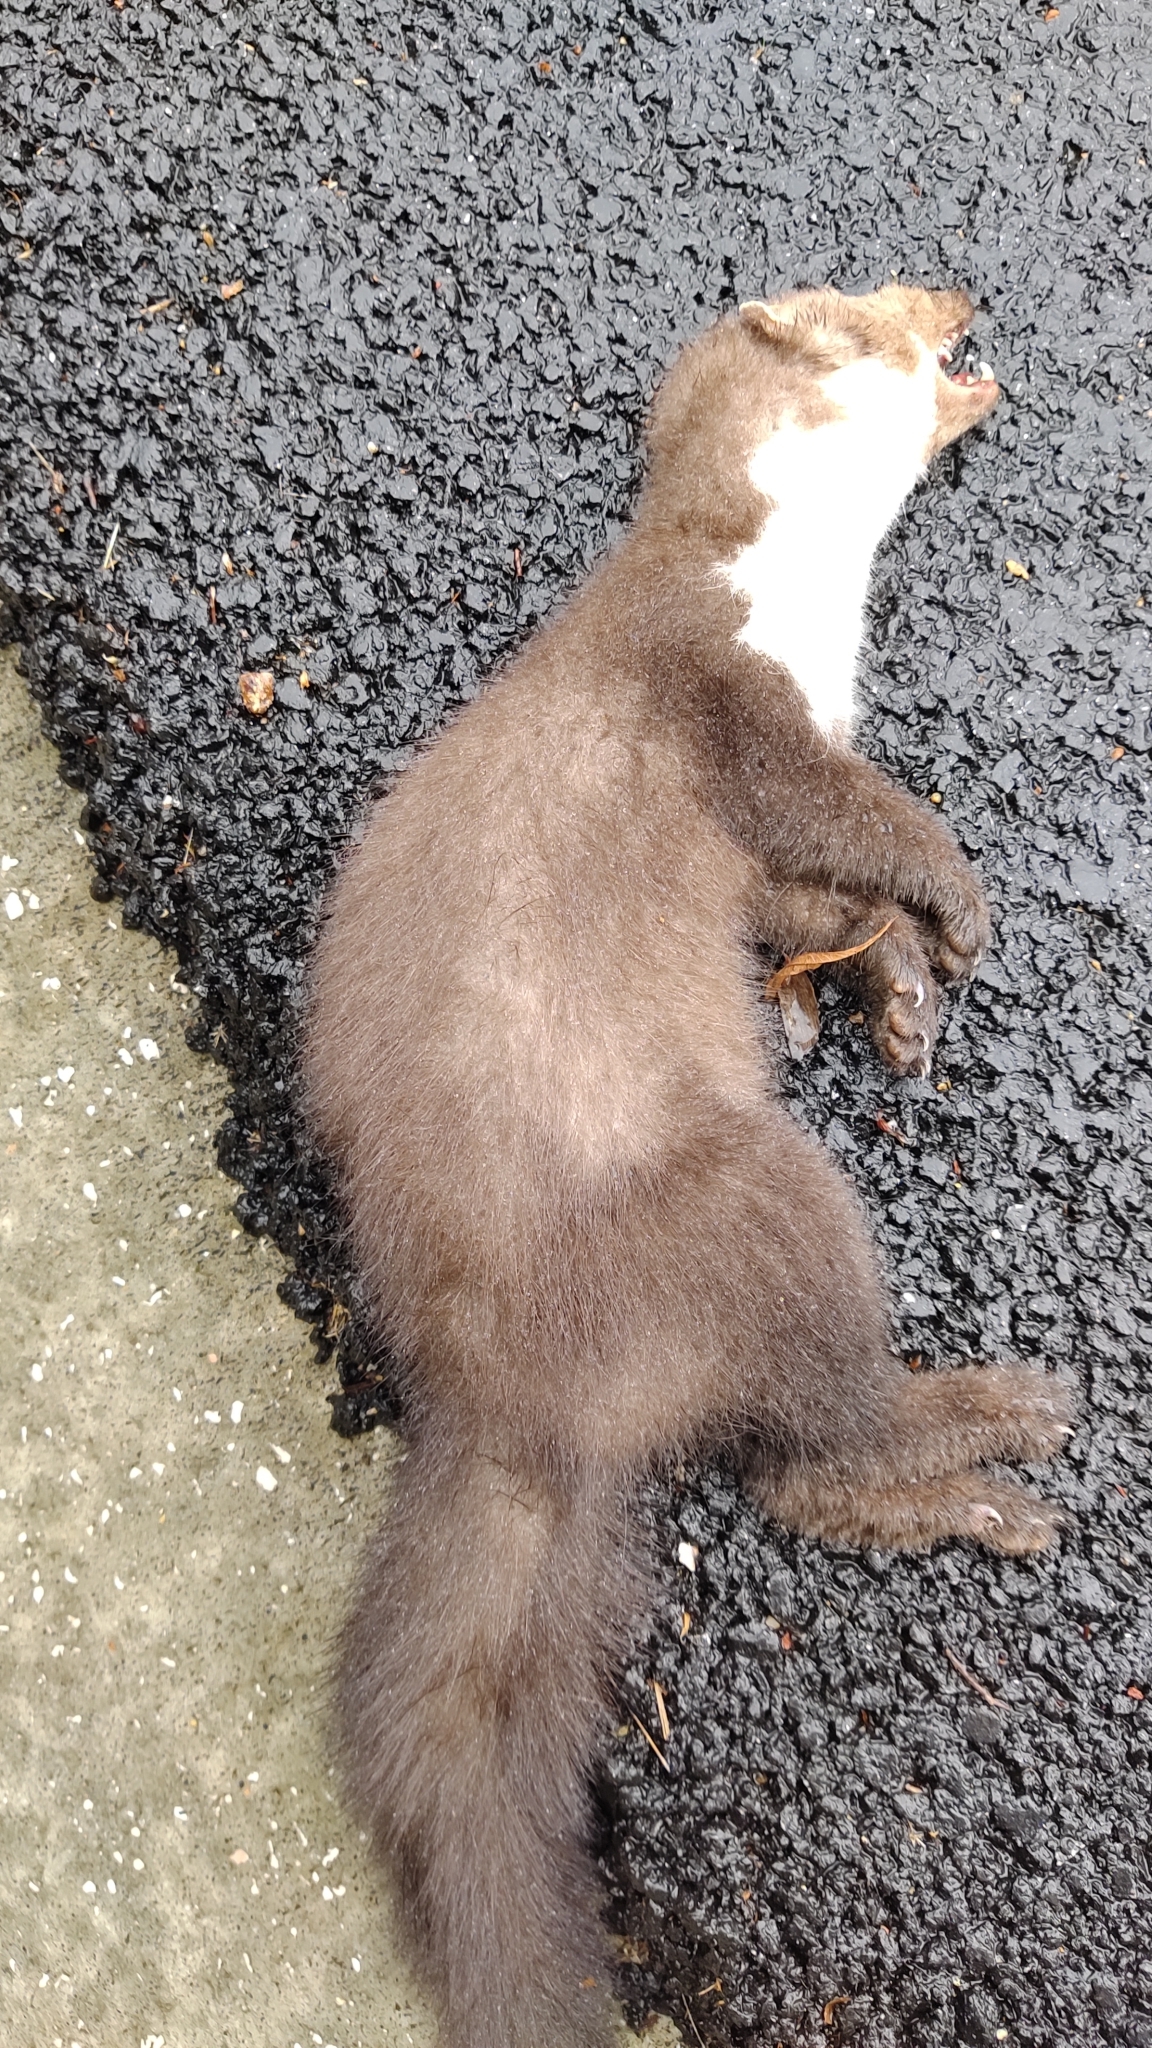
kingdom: Animalia
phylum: Chordata
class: Mammalia
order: Carnivora
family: Mustelidae
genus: Martes
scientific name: Martes foina
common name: Beech marten
